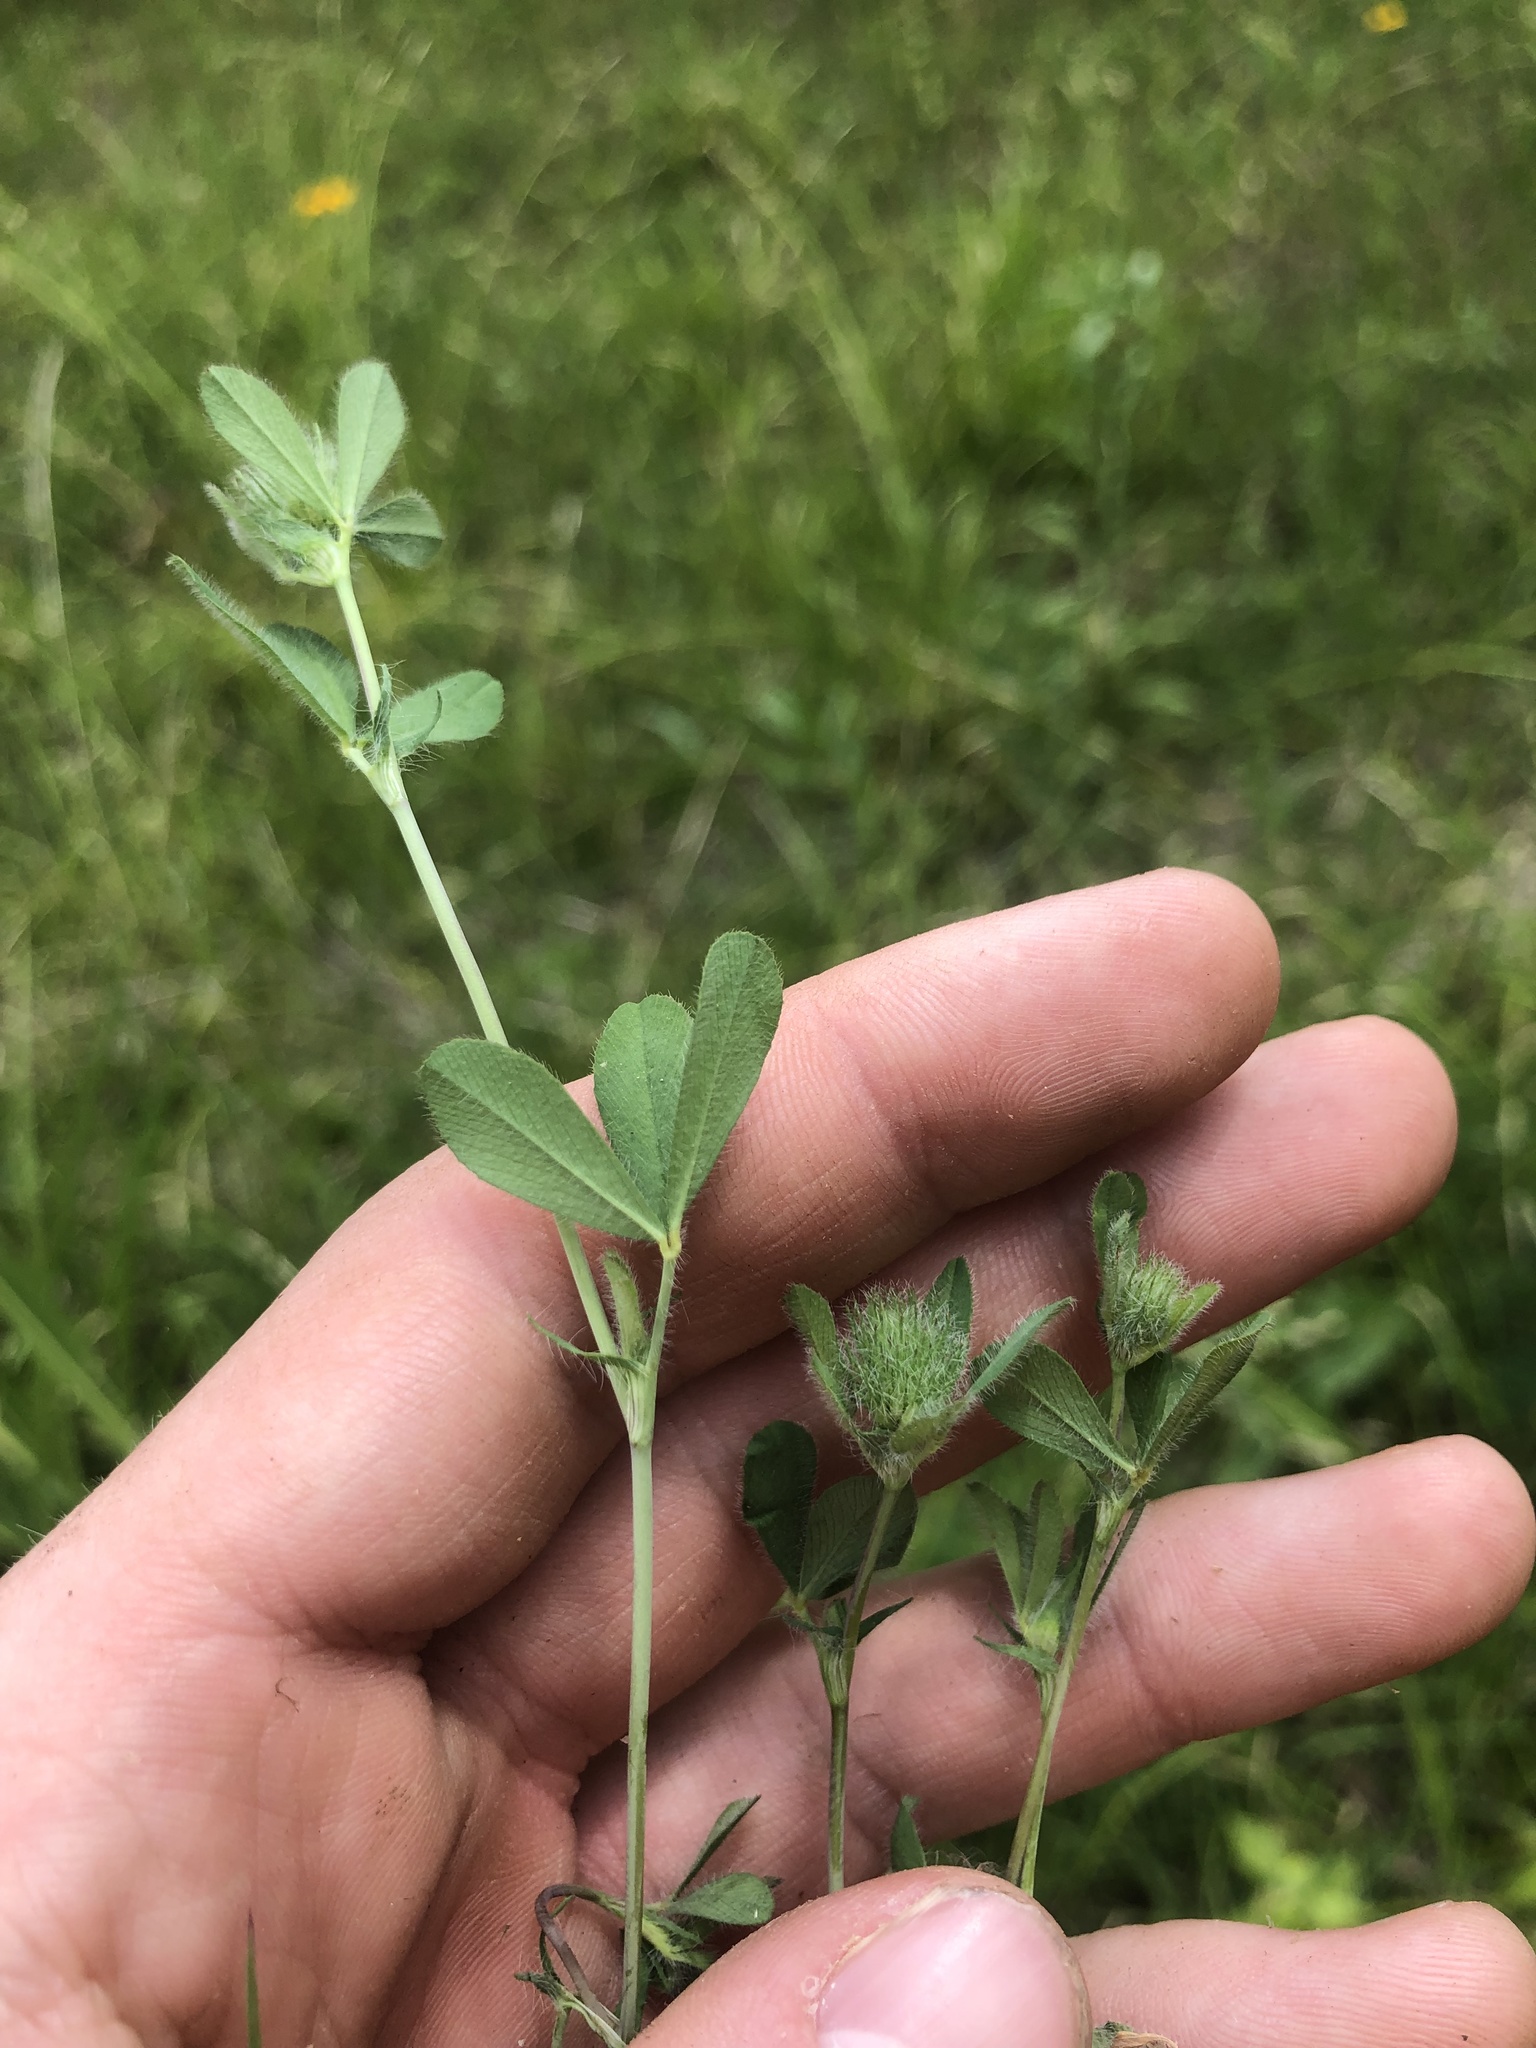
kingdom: Plantae
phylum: Tracheophyta
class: Magnoliopsida
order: Fabales
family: Fabaceae
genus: Trifolium
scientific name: Trifolium lappaceum
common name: Bur clover
